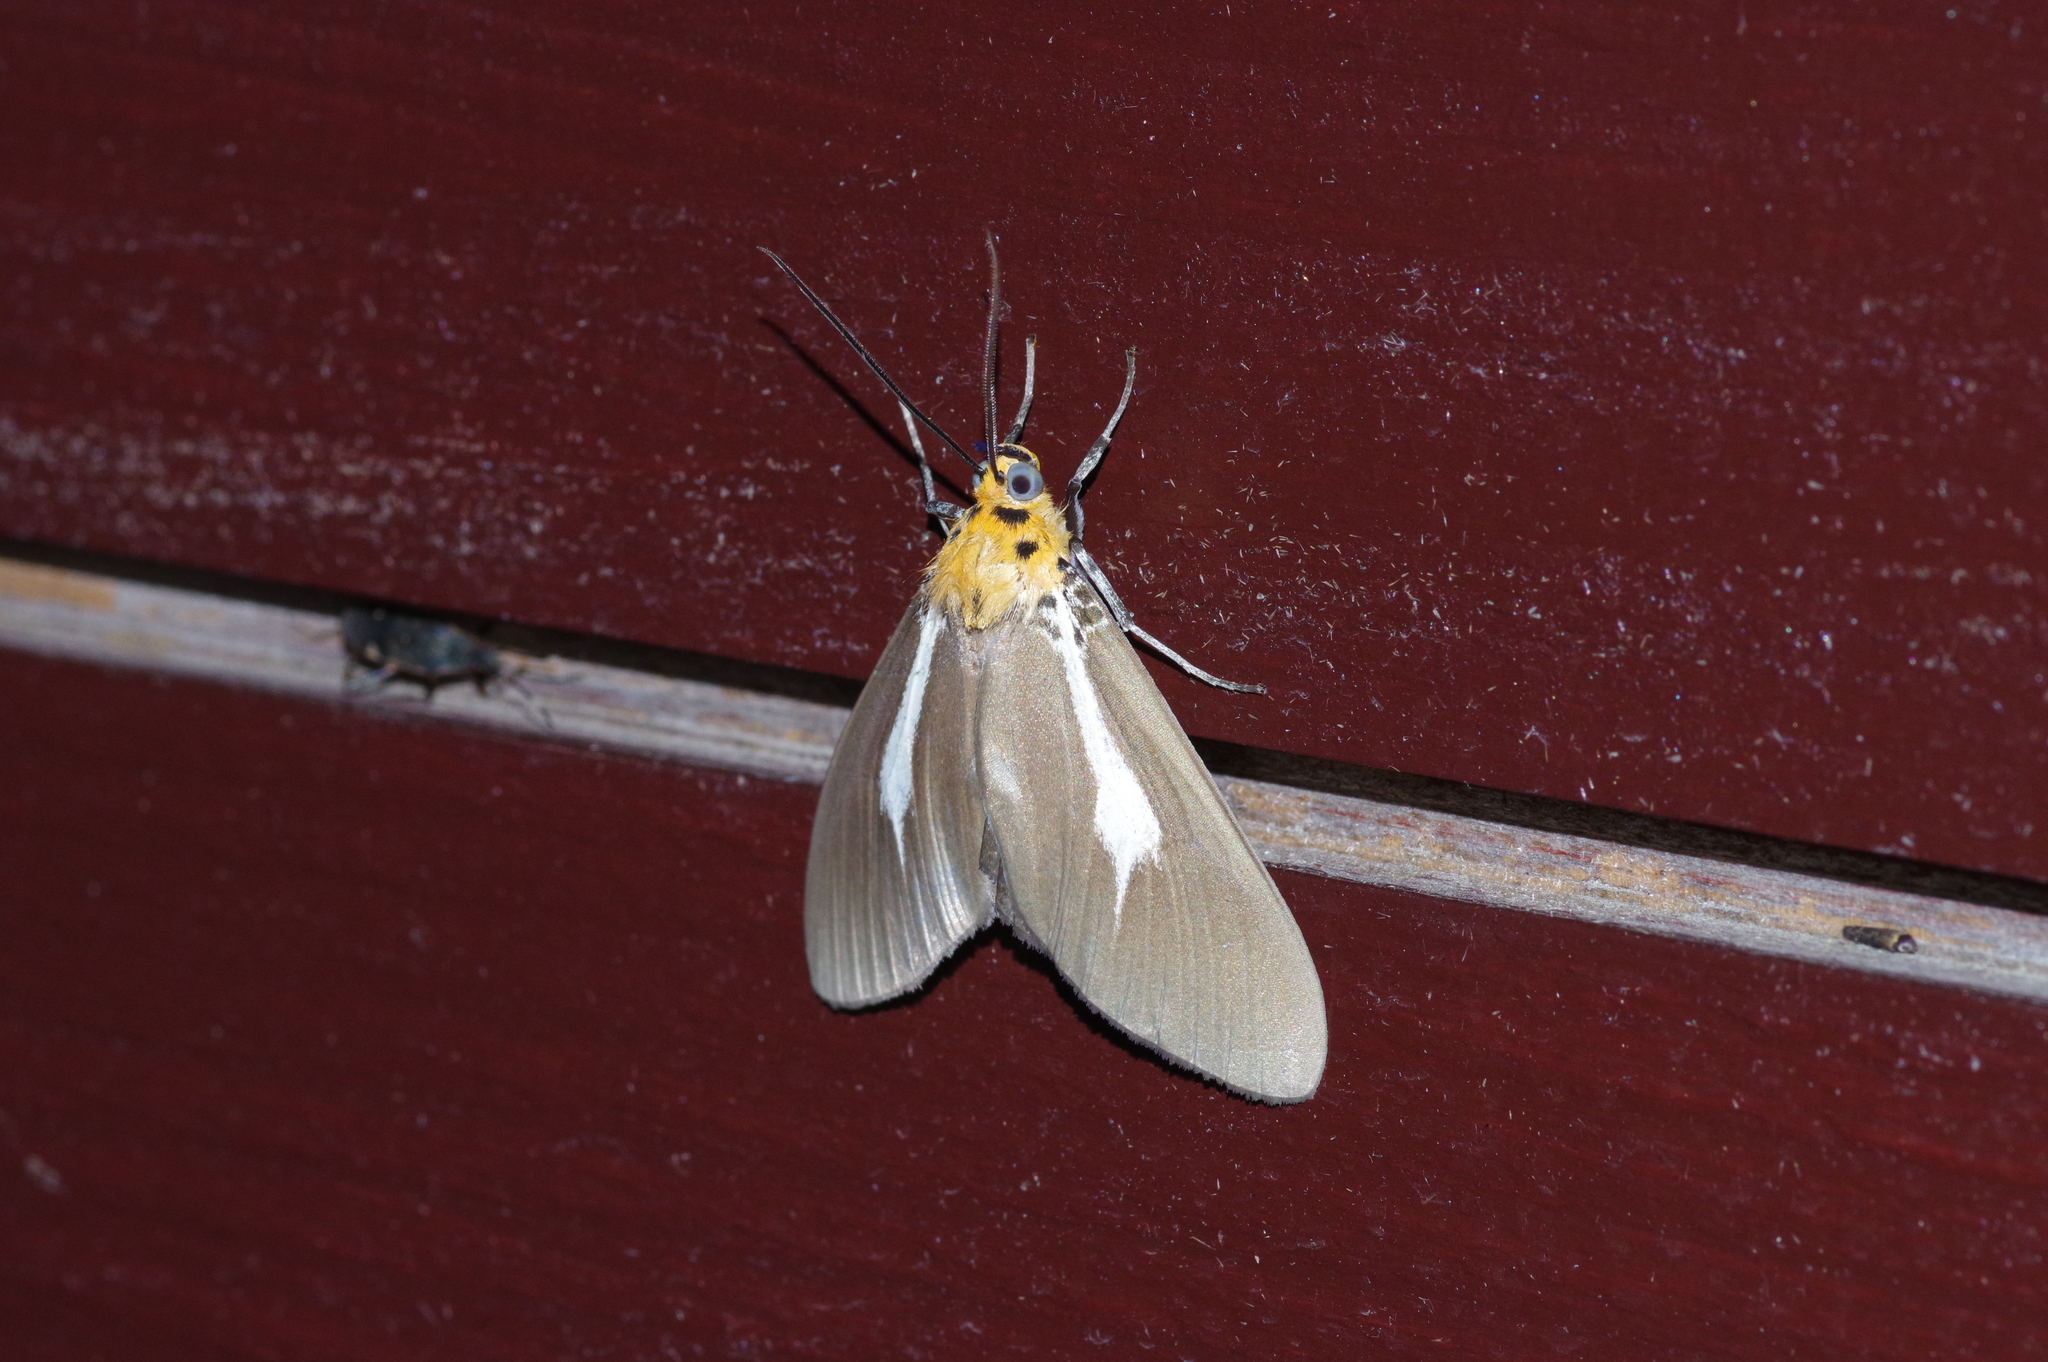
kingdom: Animalia
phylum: Arthropoda
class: Insecta
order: Lepidoptera
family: Erebidae
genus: Asota
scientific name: Asota heliconia
